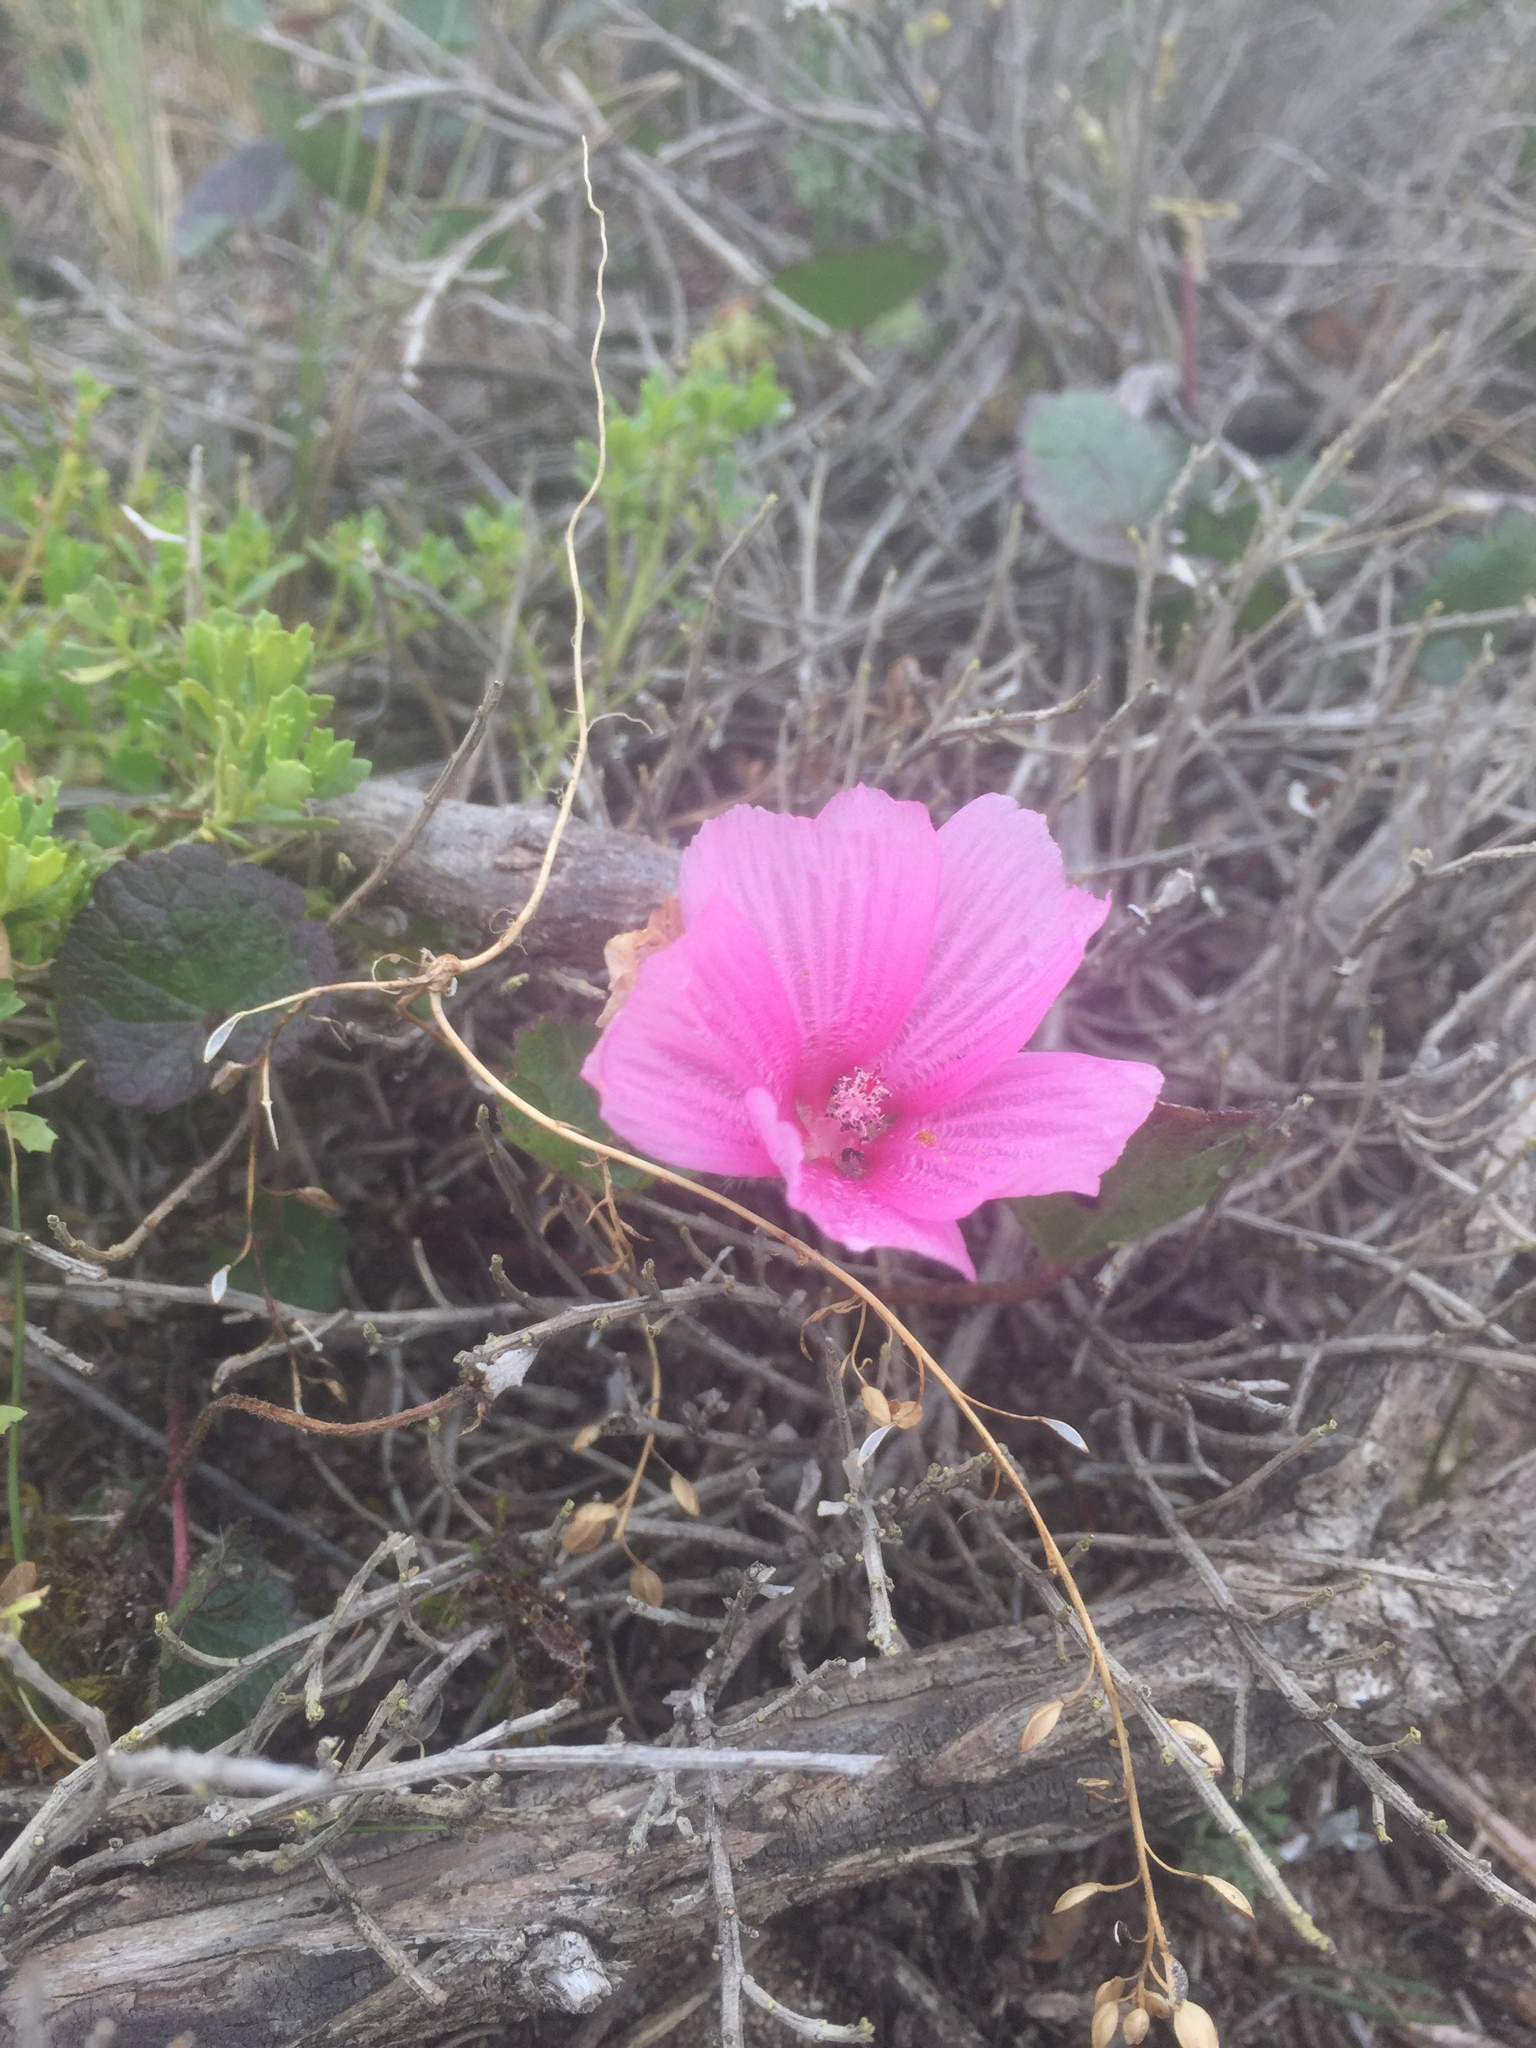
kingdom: Plantae
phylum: Tracheophyta
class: Magnoliopsida
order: Malvales
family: Malvaceae
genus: Sidalcea
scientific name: Sidalcea malviflora
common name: Greek mallow
